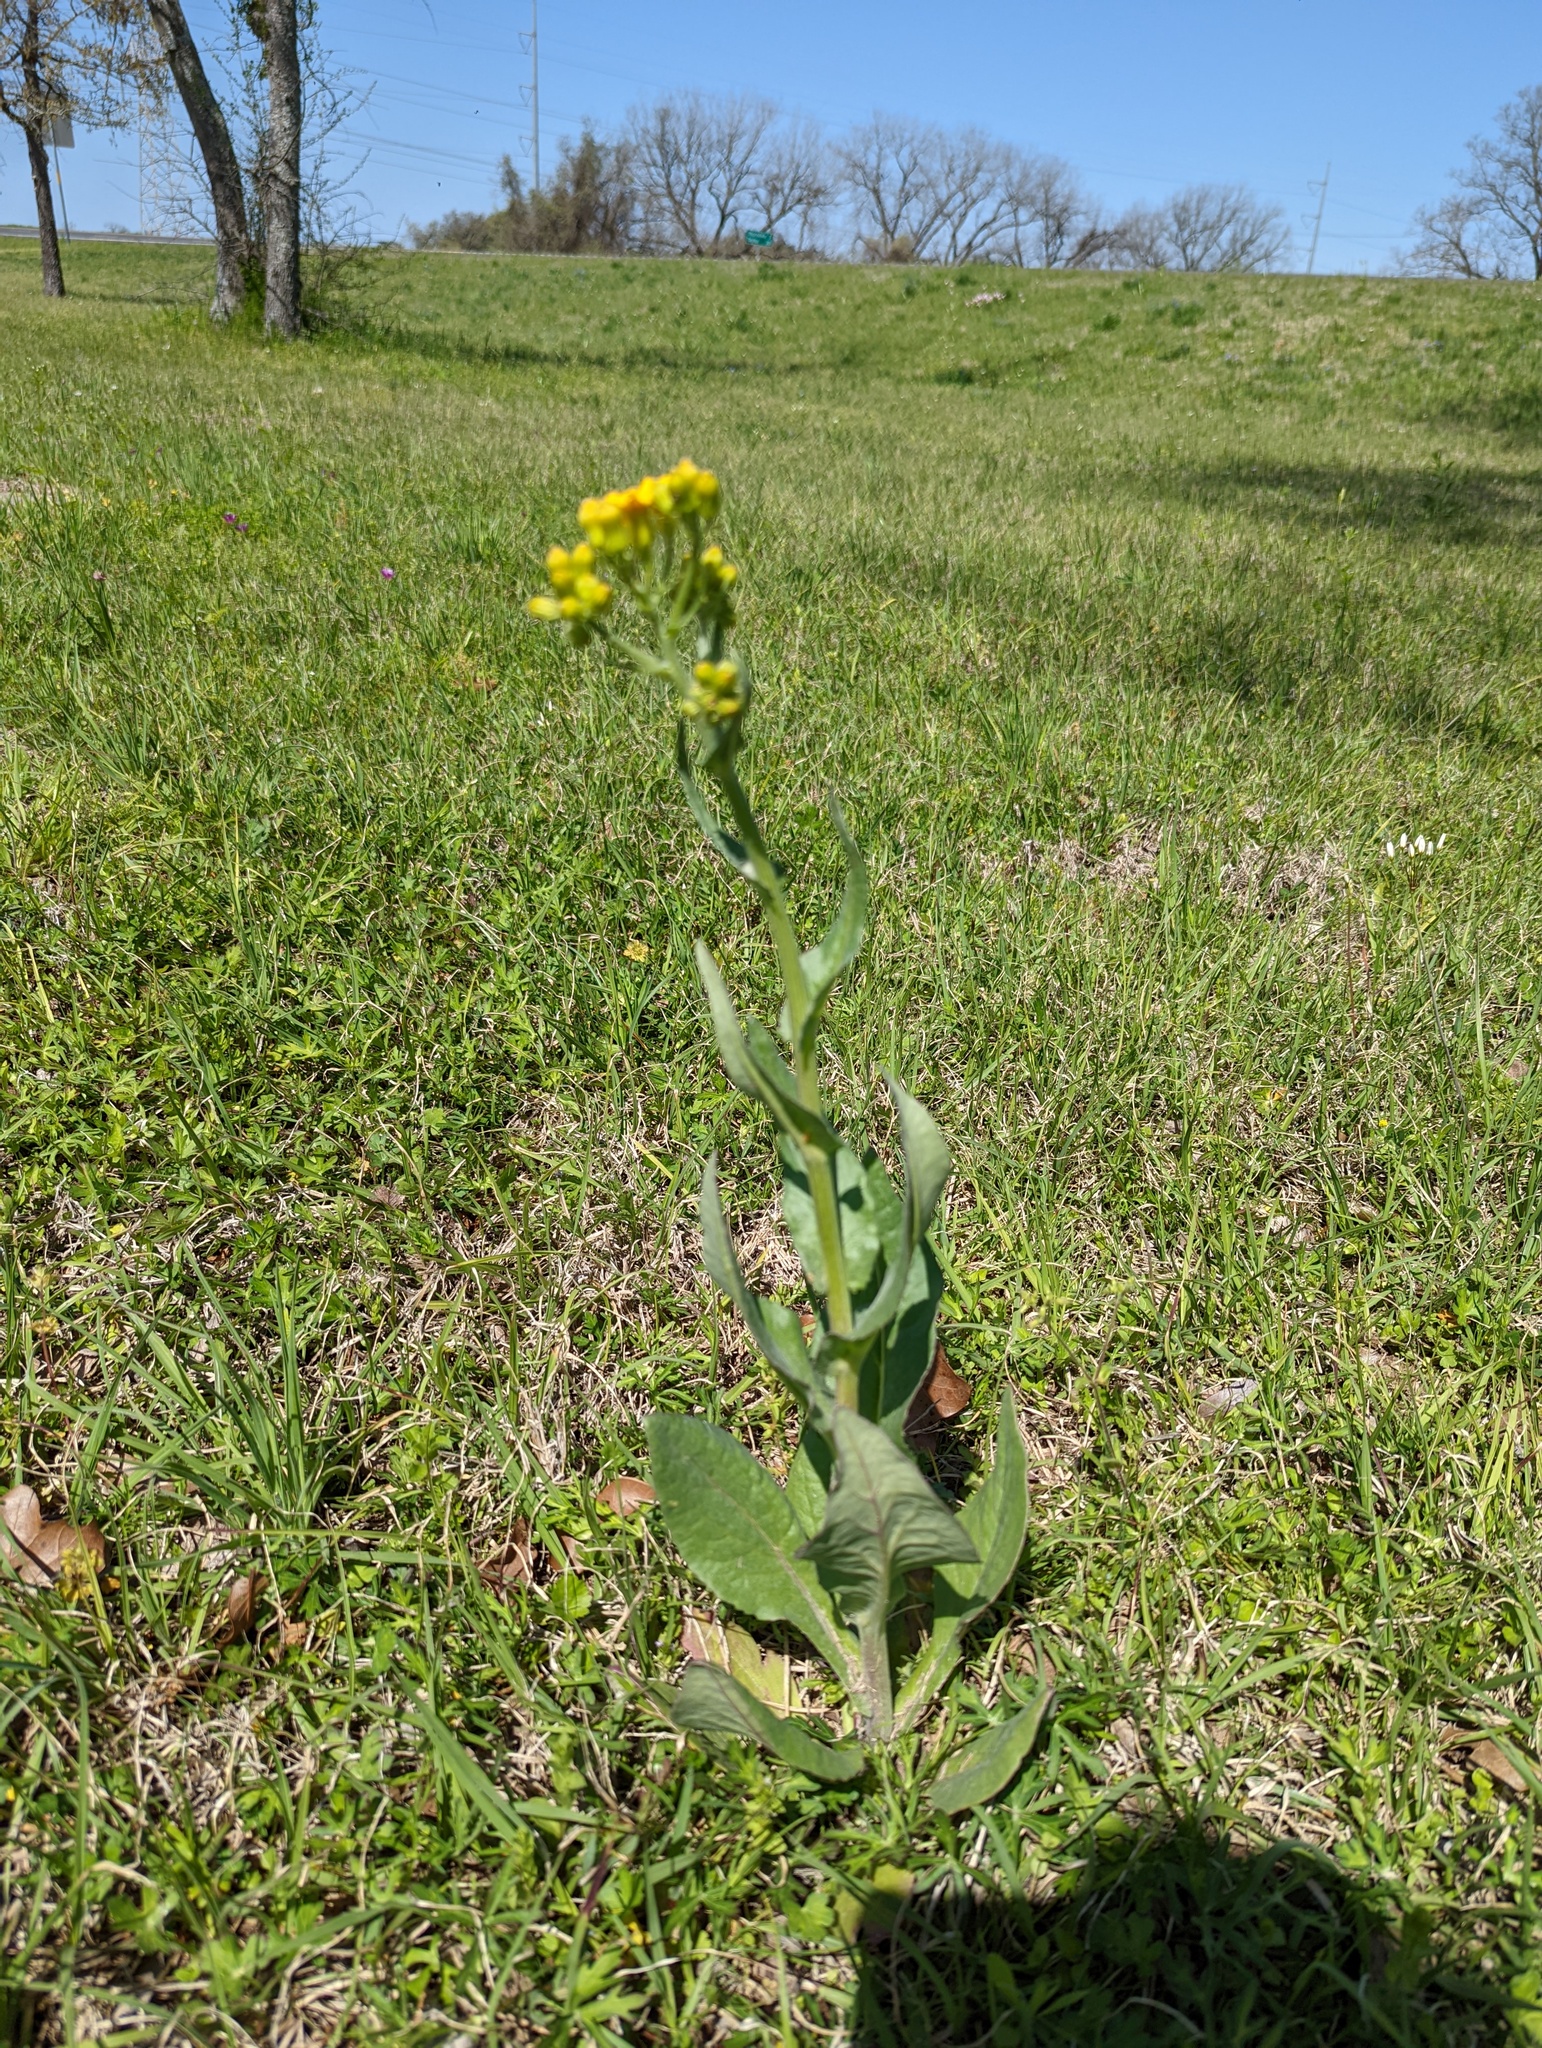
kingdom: Plantae
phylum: Tracheophyta
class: Magnoliopsida
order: Asterales
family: Asteraceae
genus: Senecio
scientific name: Senecio ampullaceus
